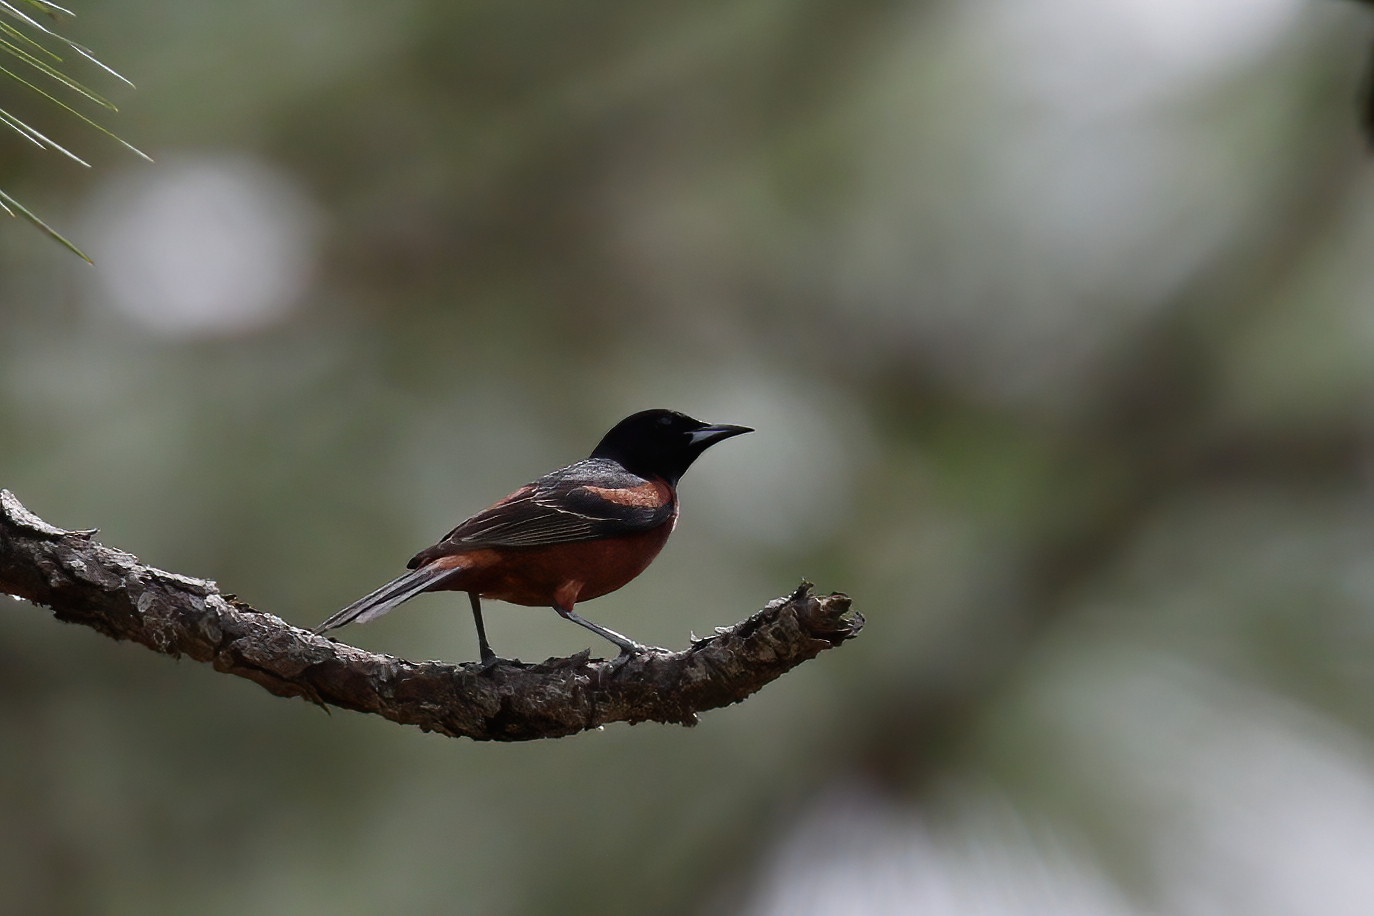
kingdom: Animalia
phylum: Chordata
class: Aves
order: Passeriformes
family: Icteridae
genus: Icterus
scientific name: Icterus spurius
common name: Orchard oriole
